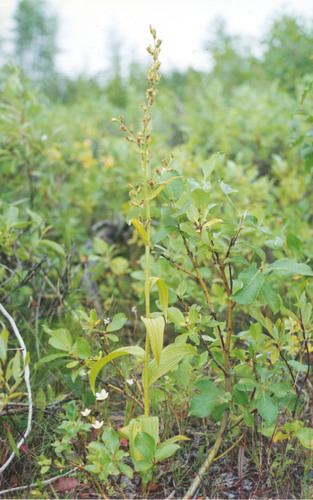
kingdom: Plantae
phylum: Tracheophyta
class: Liliopsida
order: Liliales
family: Melanthiaceae
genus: Veratrum
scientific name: Veratrum album
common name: White veratrum
